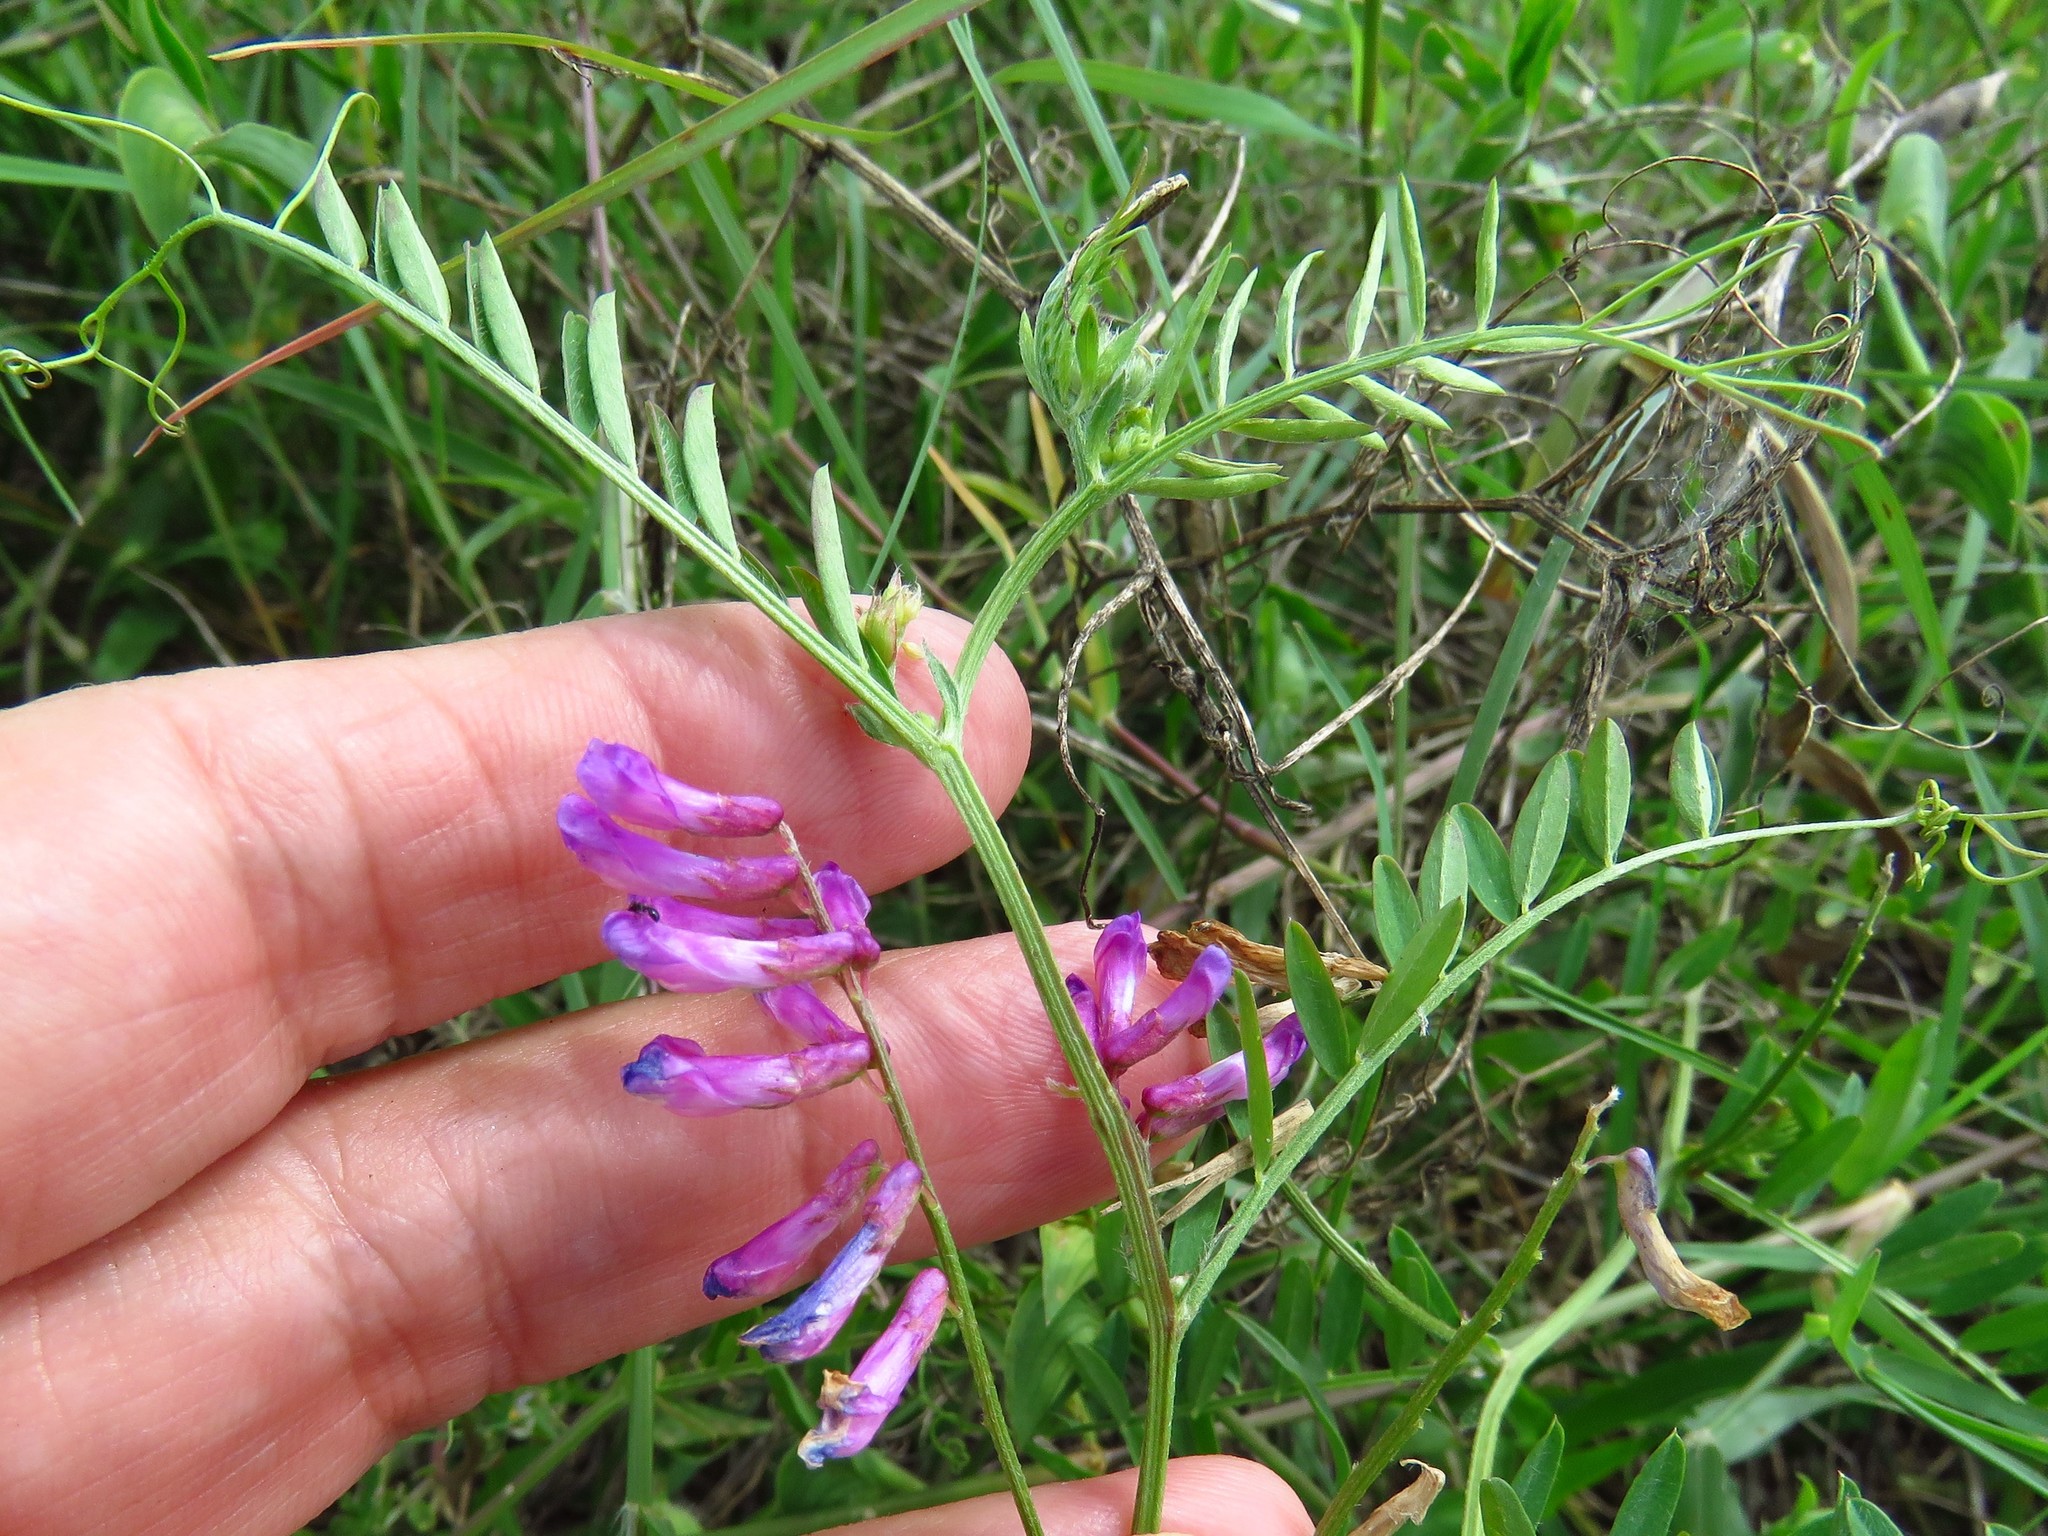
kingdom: Plantae
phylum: Tracheophyta
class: Magnoliopsida
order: Fabales
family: Fabaceae
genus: Vicia
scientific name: Vicia villosa
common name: Fodder vetch
